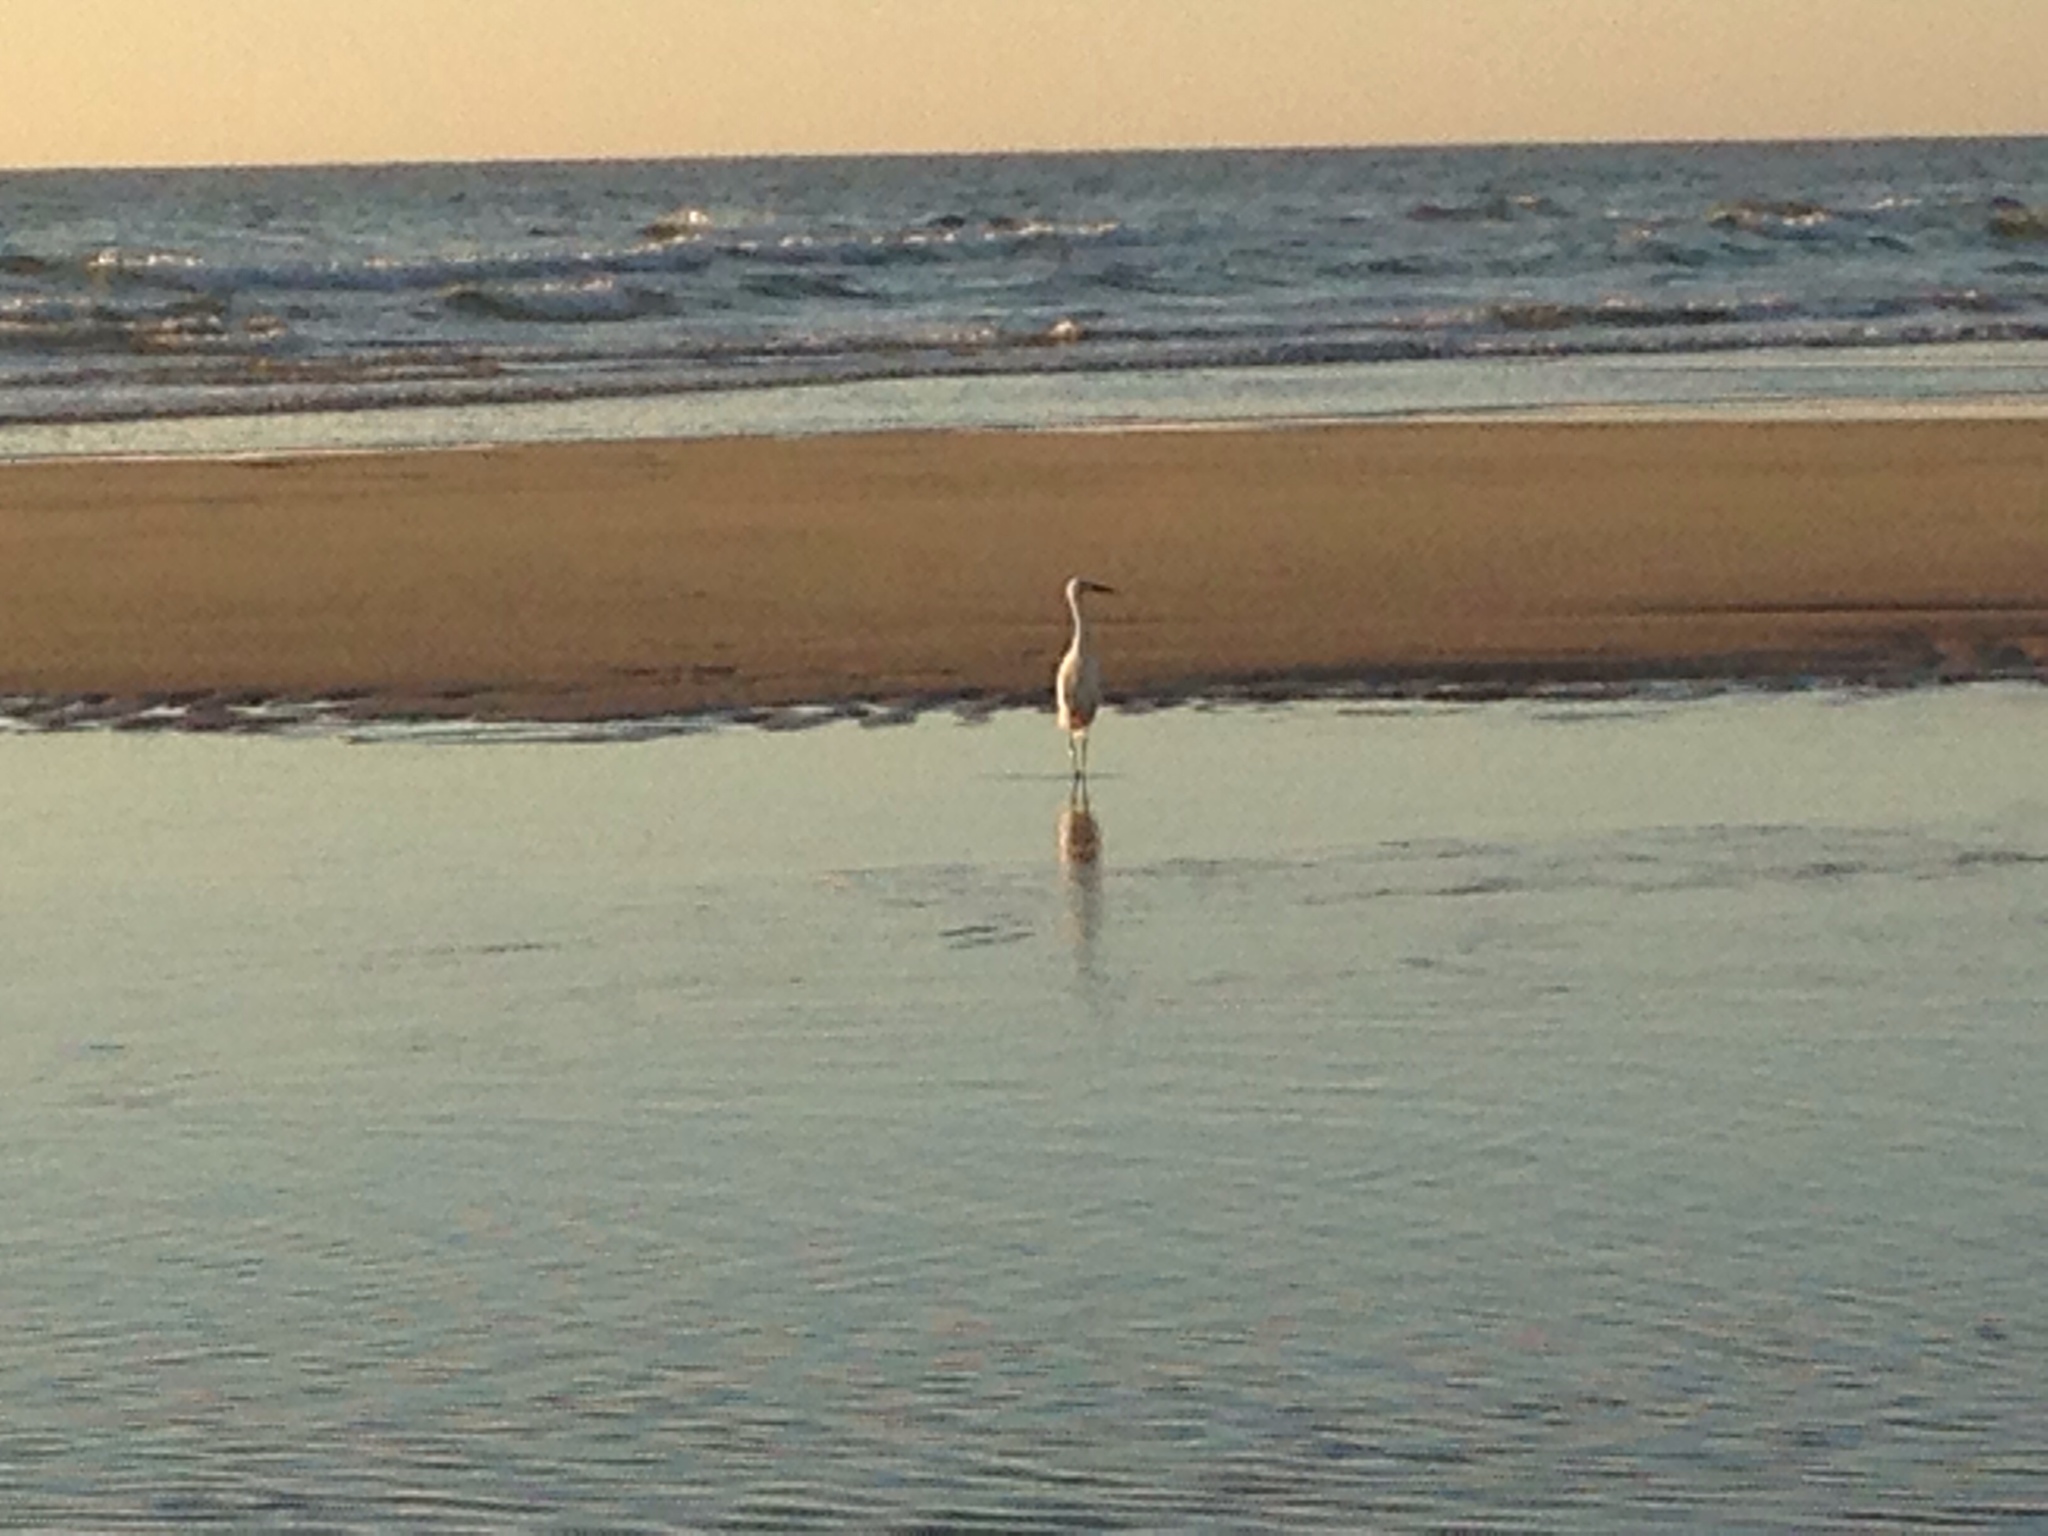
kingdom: Animalia
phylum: Chordata
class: Aves
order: Pelecaniformes
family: Ardeidae
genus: Egretta
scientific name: Egretta garzetta
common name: Little egret
